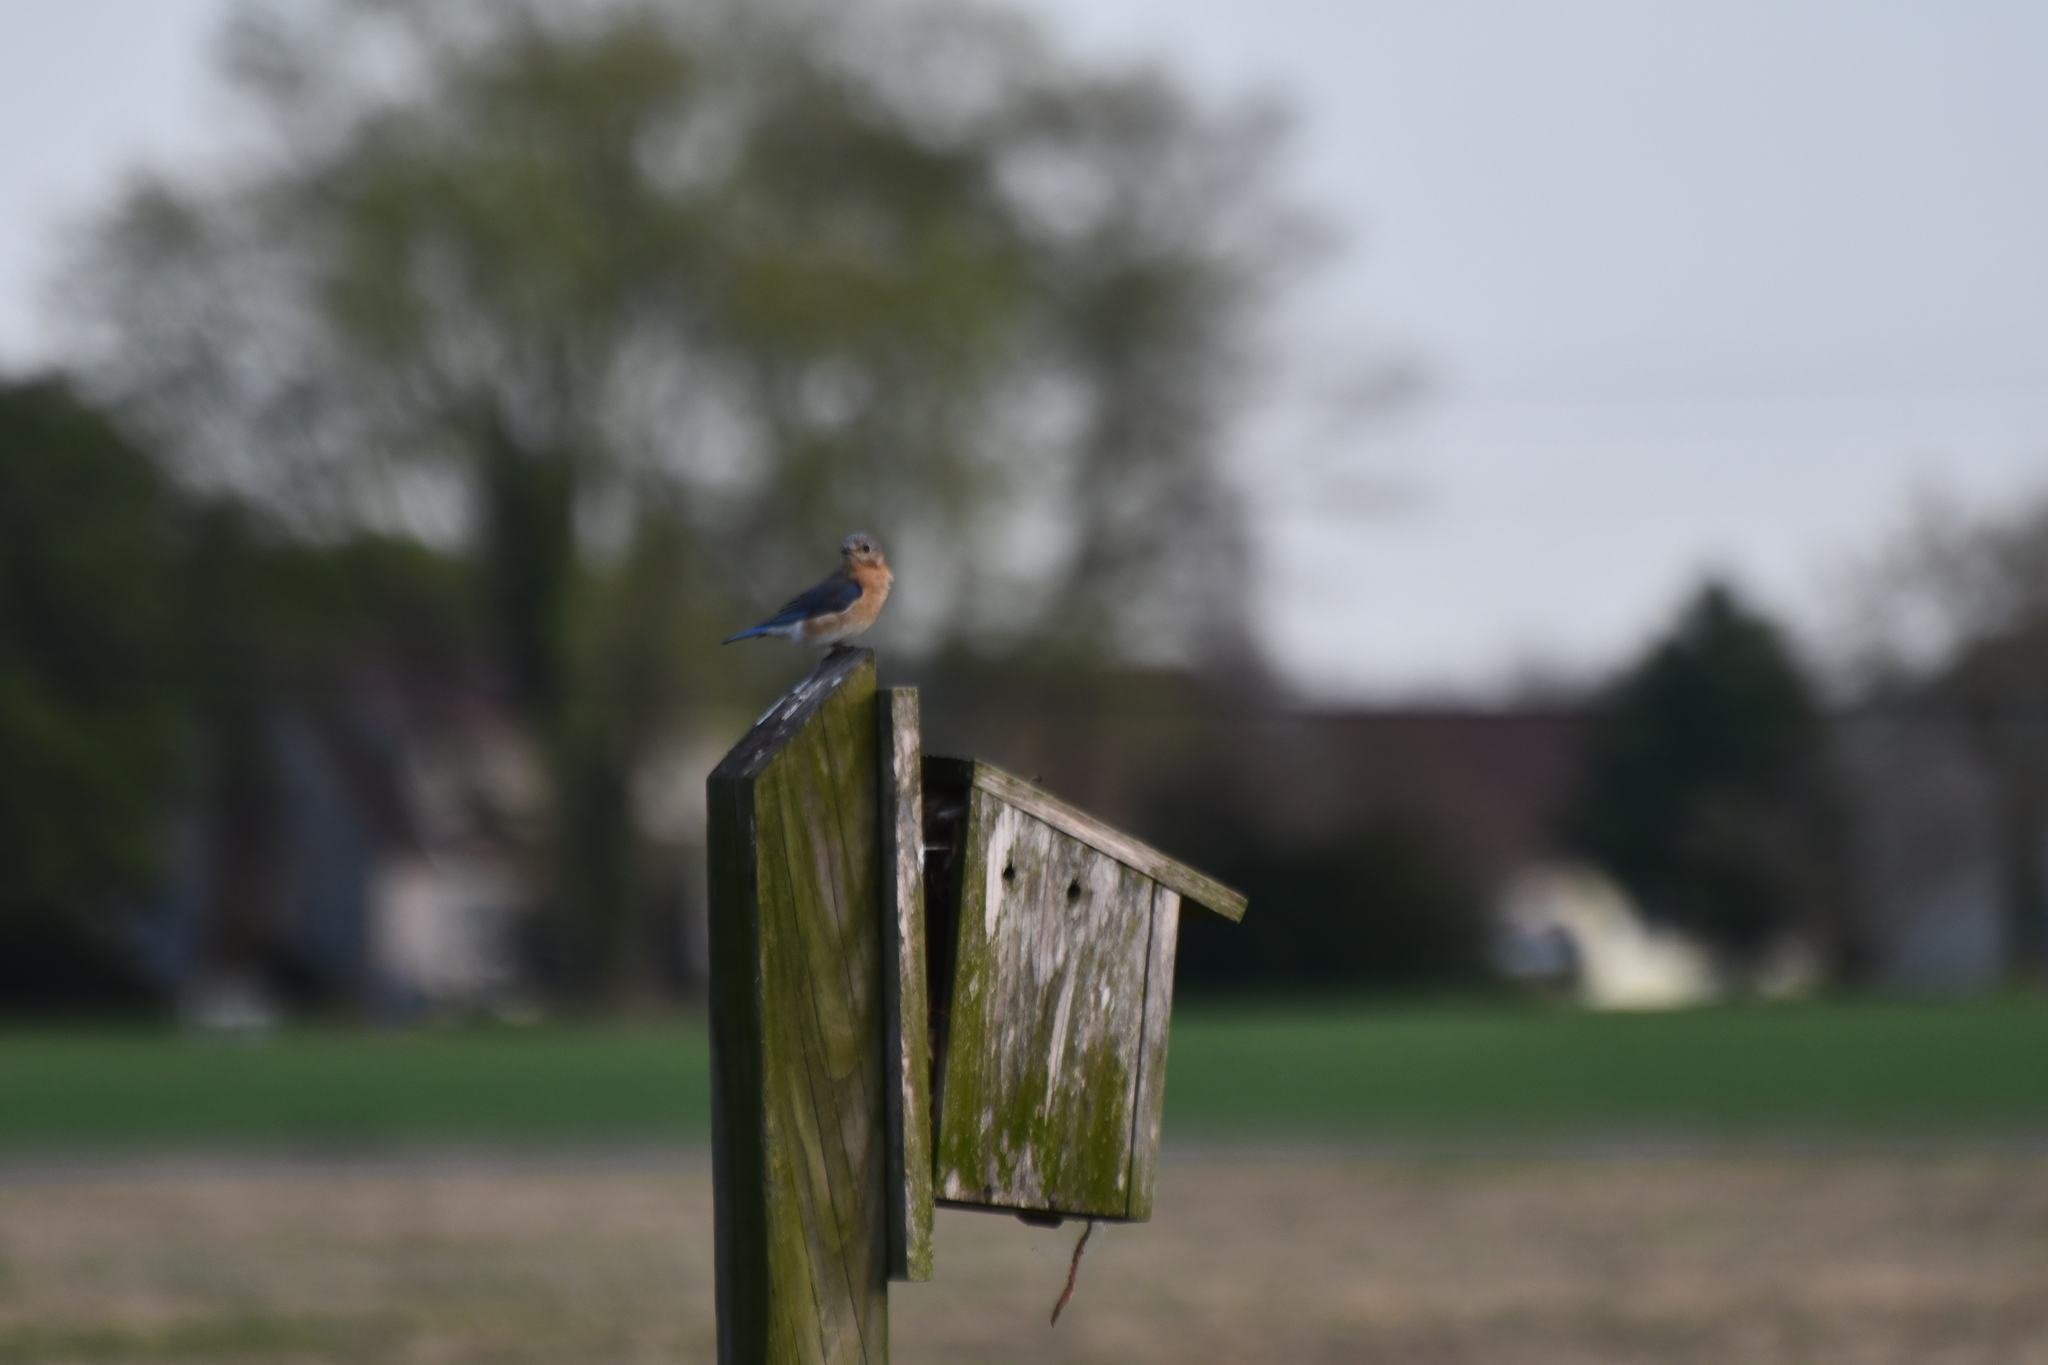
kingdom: Animalia
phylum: Chordata
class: Aves
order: Passeriformes
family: Turdidae
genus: Sialia
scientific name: Sialia sialis
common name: Eastern bluebird
